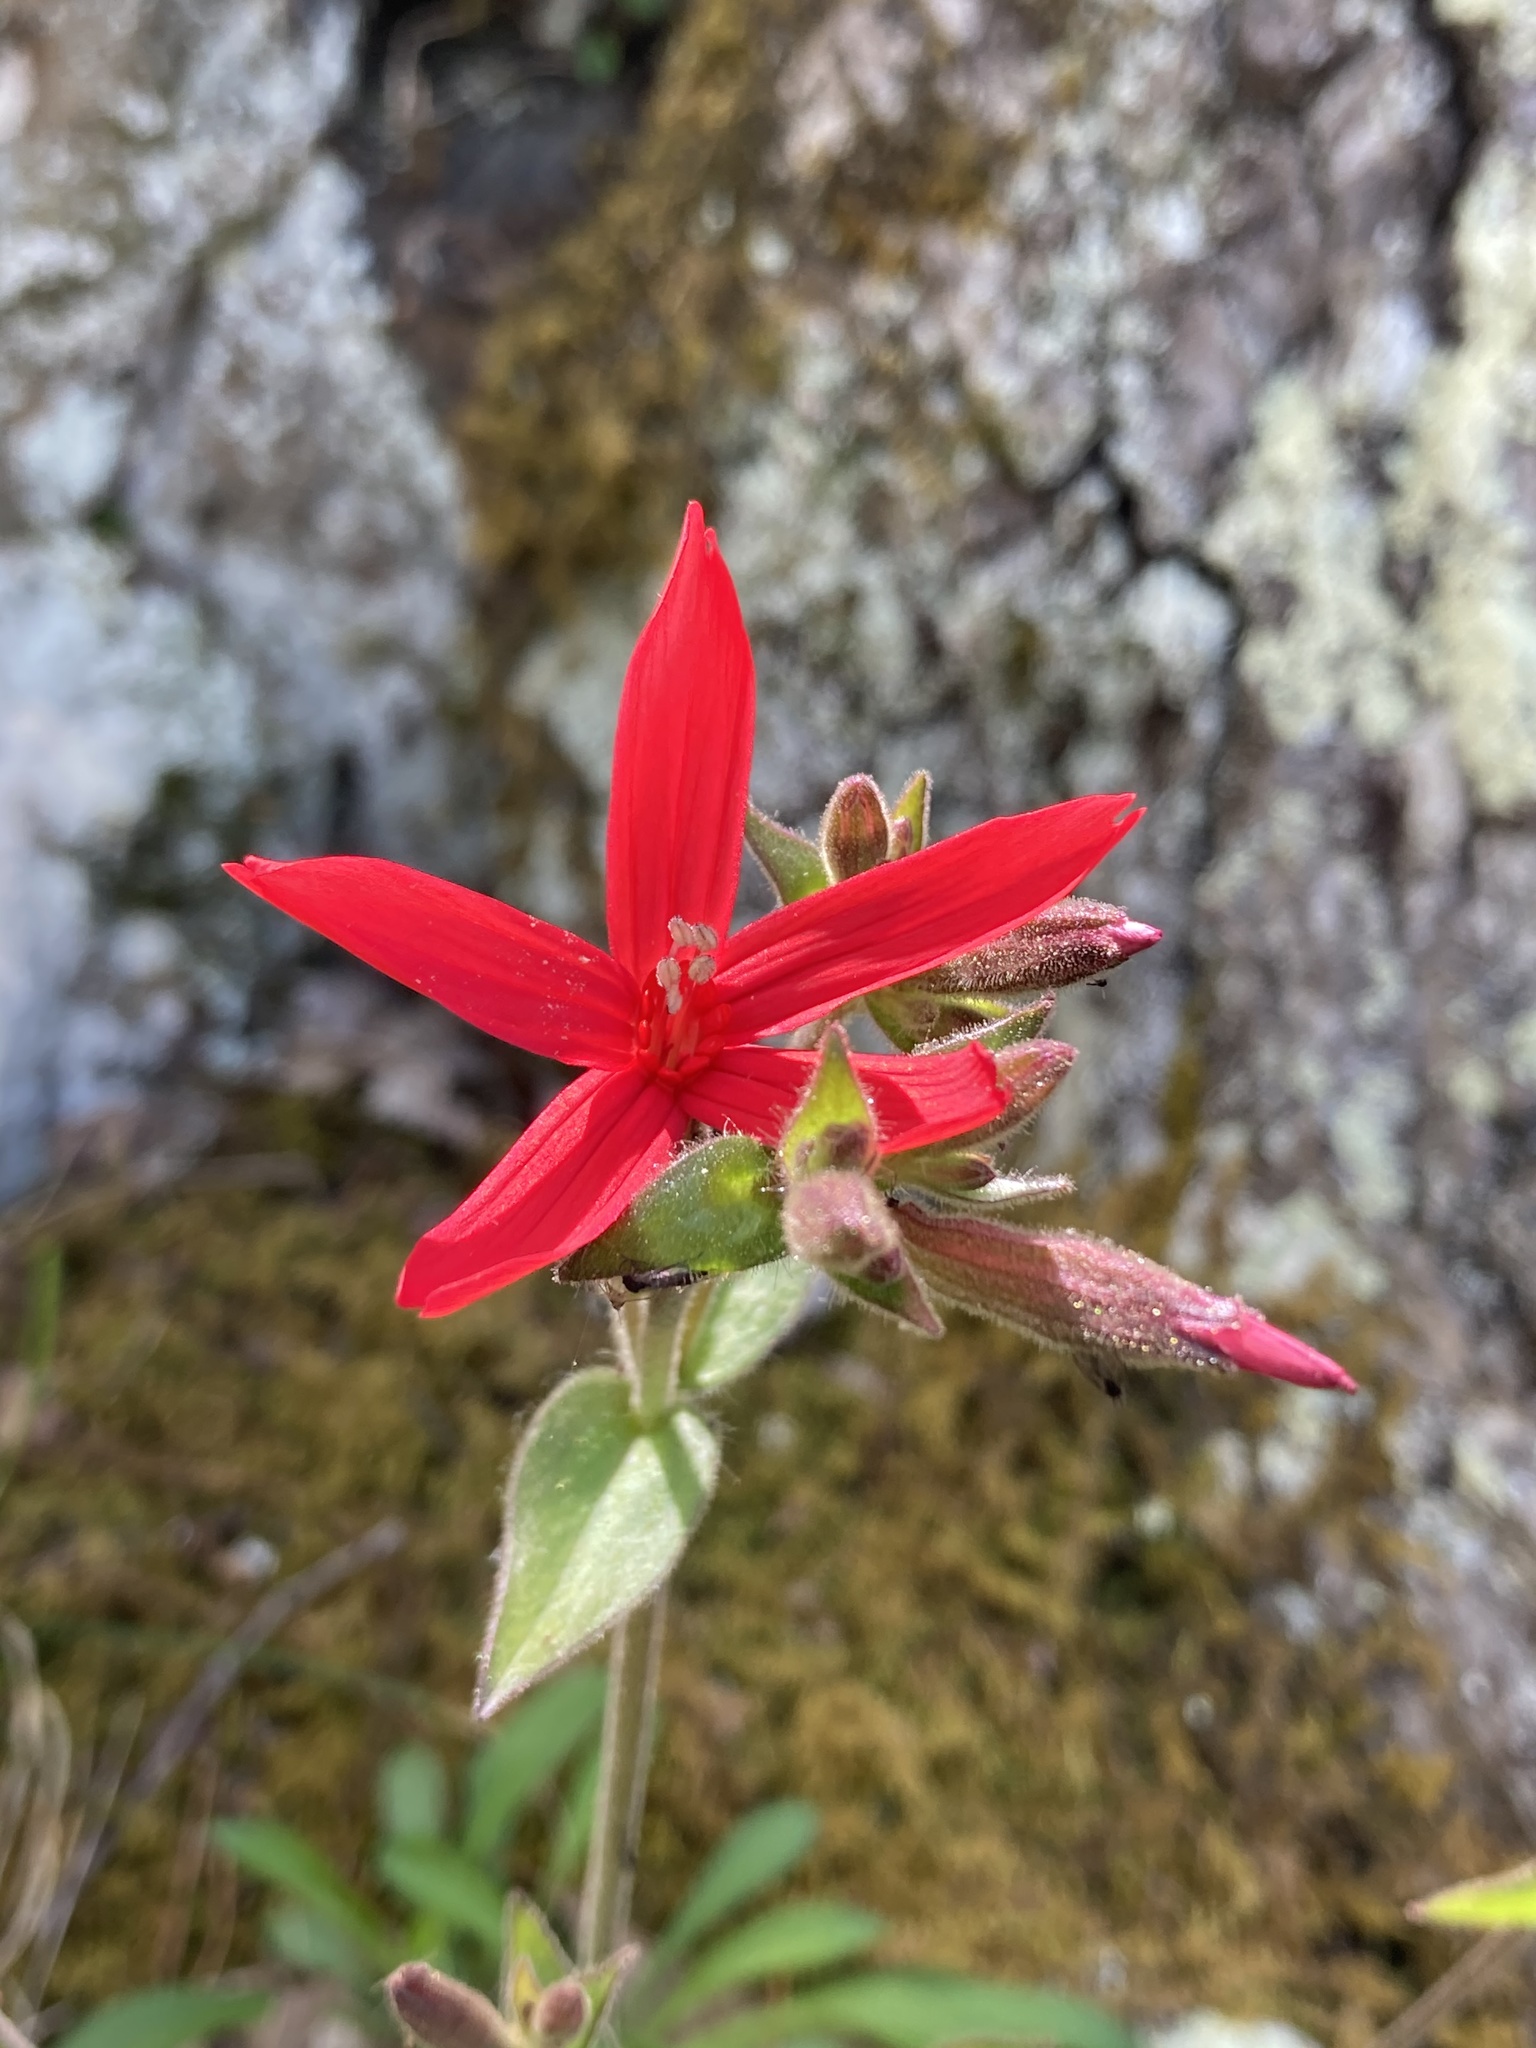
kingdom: Plantae
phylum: Tracheophyta
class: Magnoliopsida
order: Caryophyllales
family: Caryophyllaceae
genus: Silene
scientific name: Silene virginica
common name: Fire-pink
